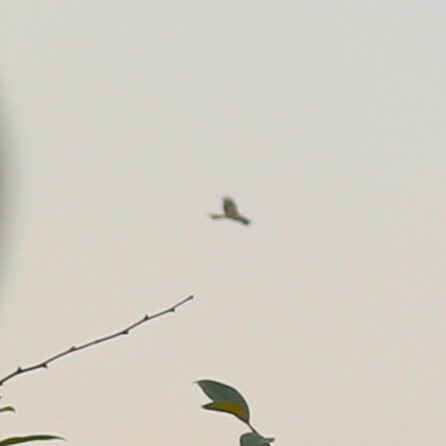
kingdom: Animalia
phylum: Chordata
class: Aves
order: Accipitriformes
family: Accipitridae
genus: Milvus
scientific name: Milvus milvus
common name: Red kite
